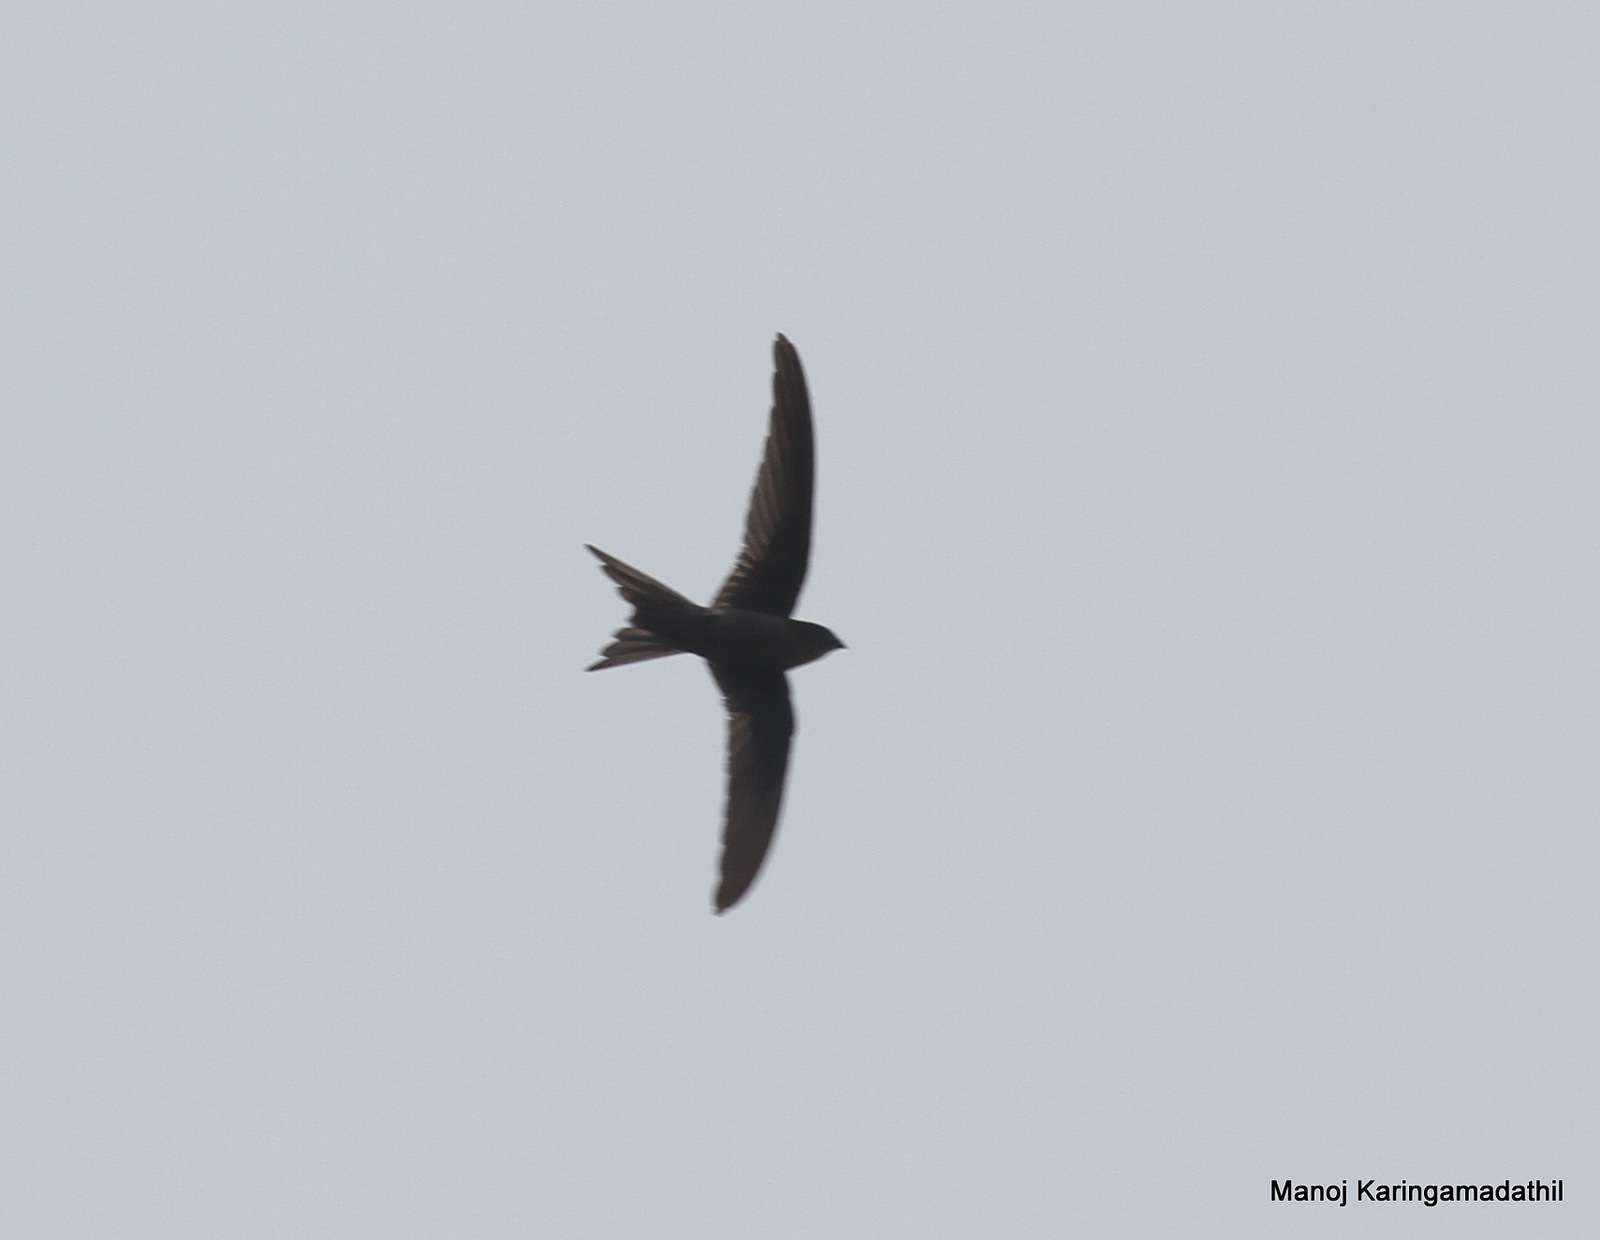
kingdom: Animalia
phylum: Chordata
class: Aves
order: Apodiformes
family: Apodidae
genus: Cypsiurus
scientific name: Cypsiurus balasiensis
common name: Asian palm swift
